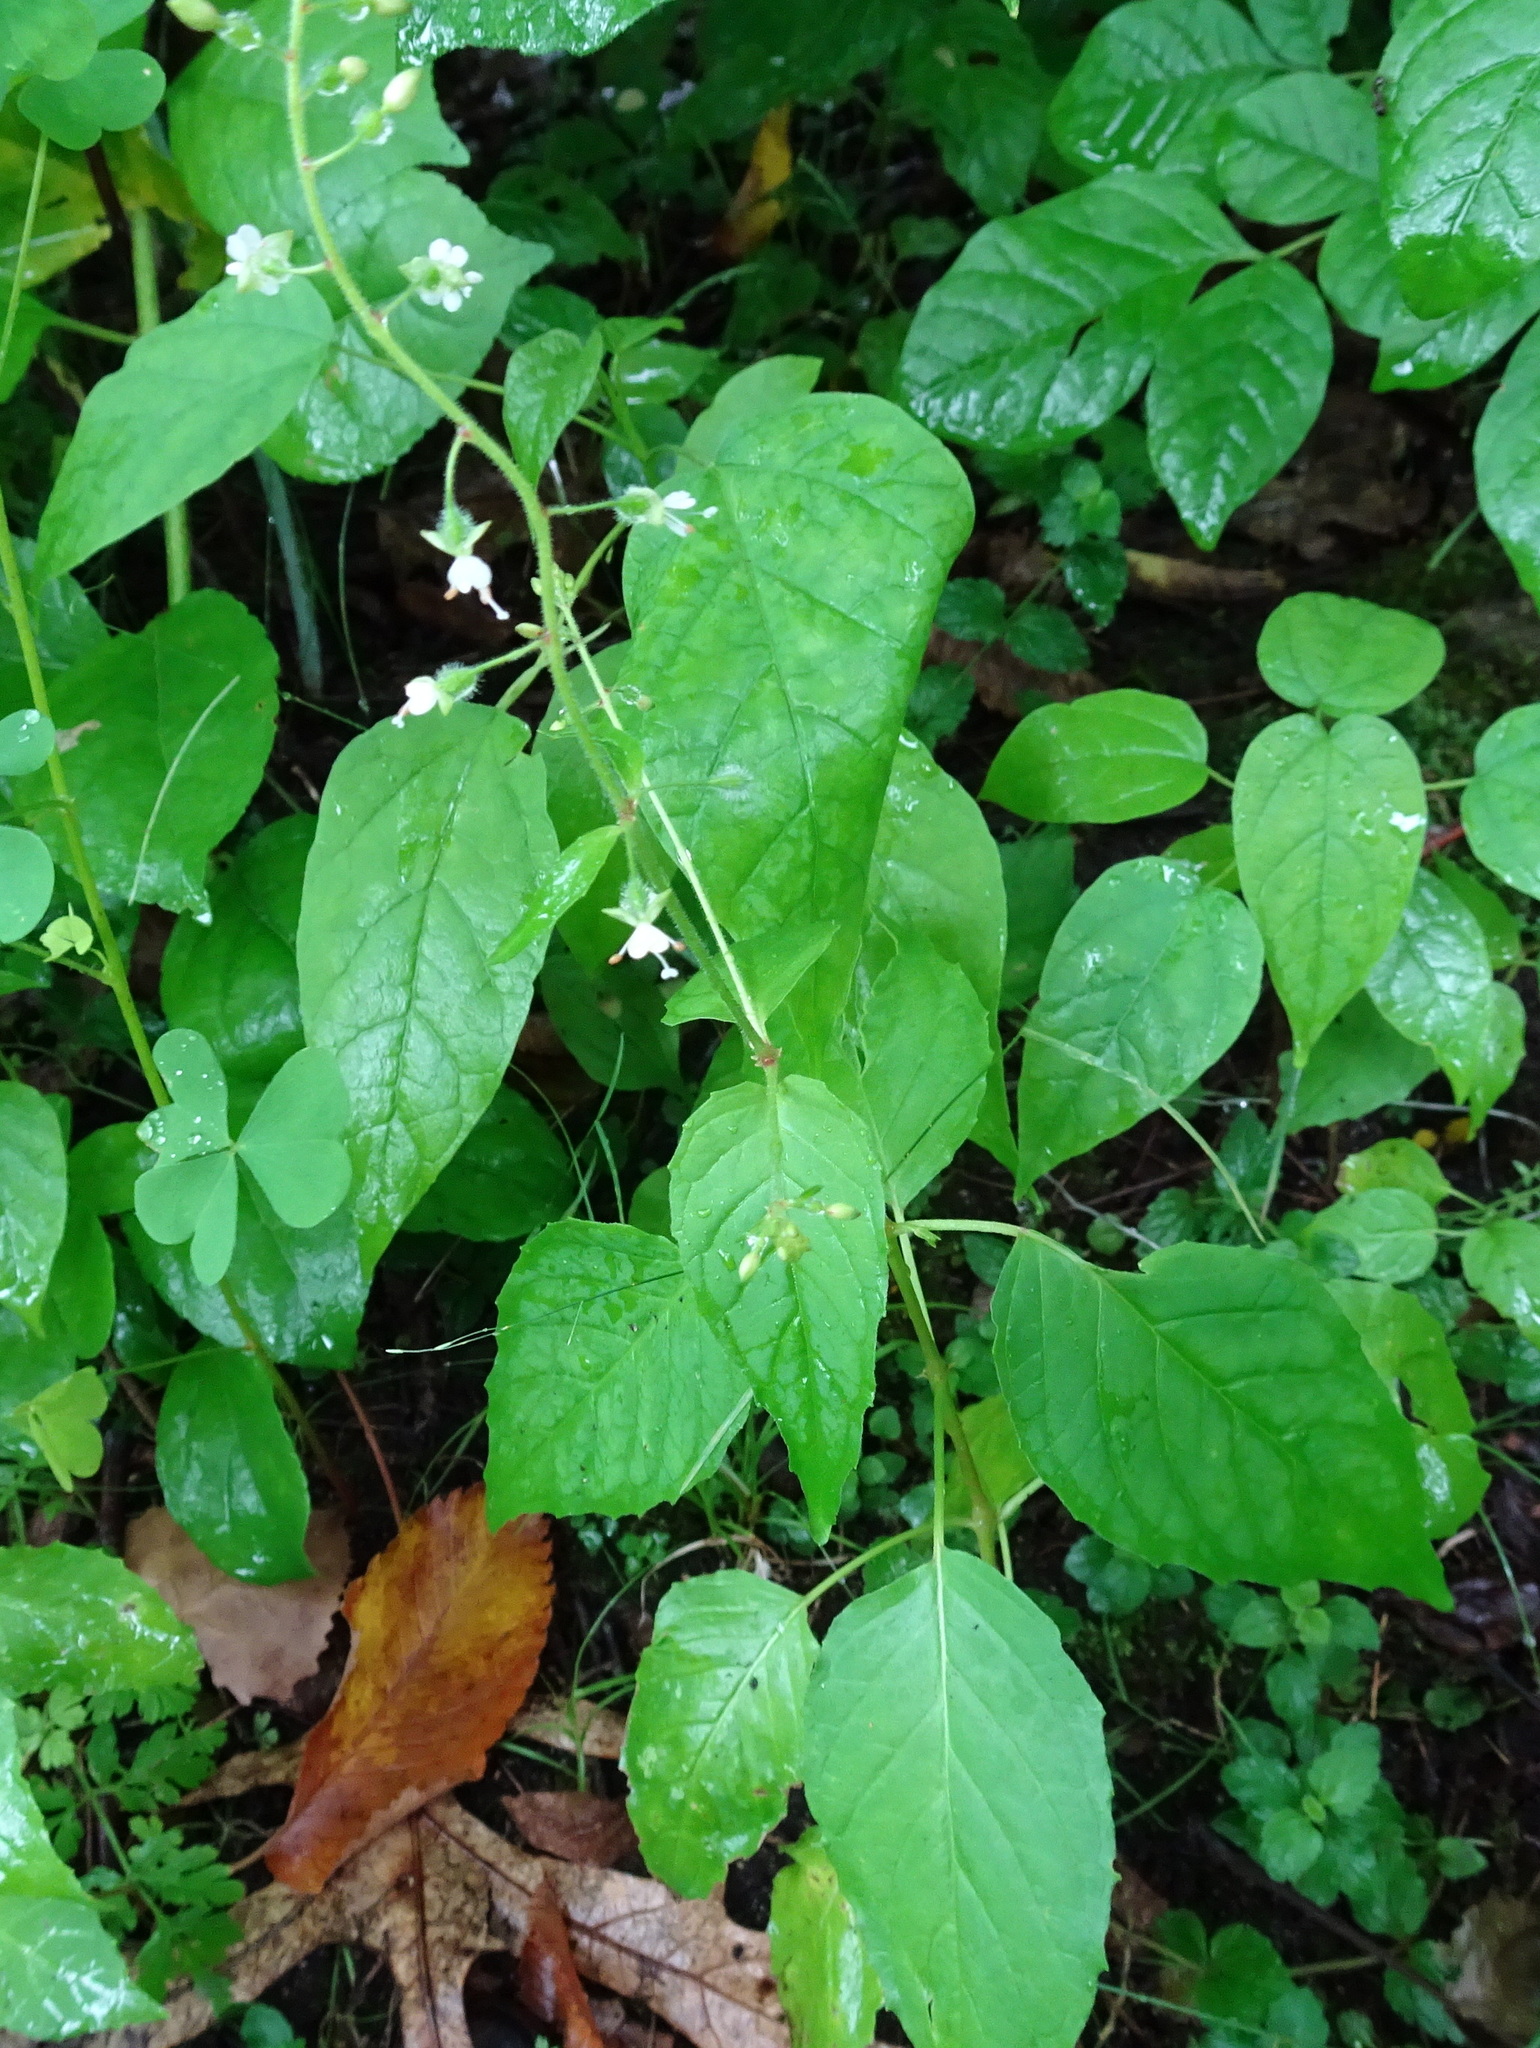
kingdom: Plantae
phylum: Tracheophyta
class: Magnoliopsida
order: Myrtales
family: Onagraceae
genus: Circaea
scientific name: Circaea canadensis
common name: Broad-leaved enchanter's nightshade
